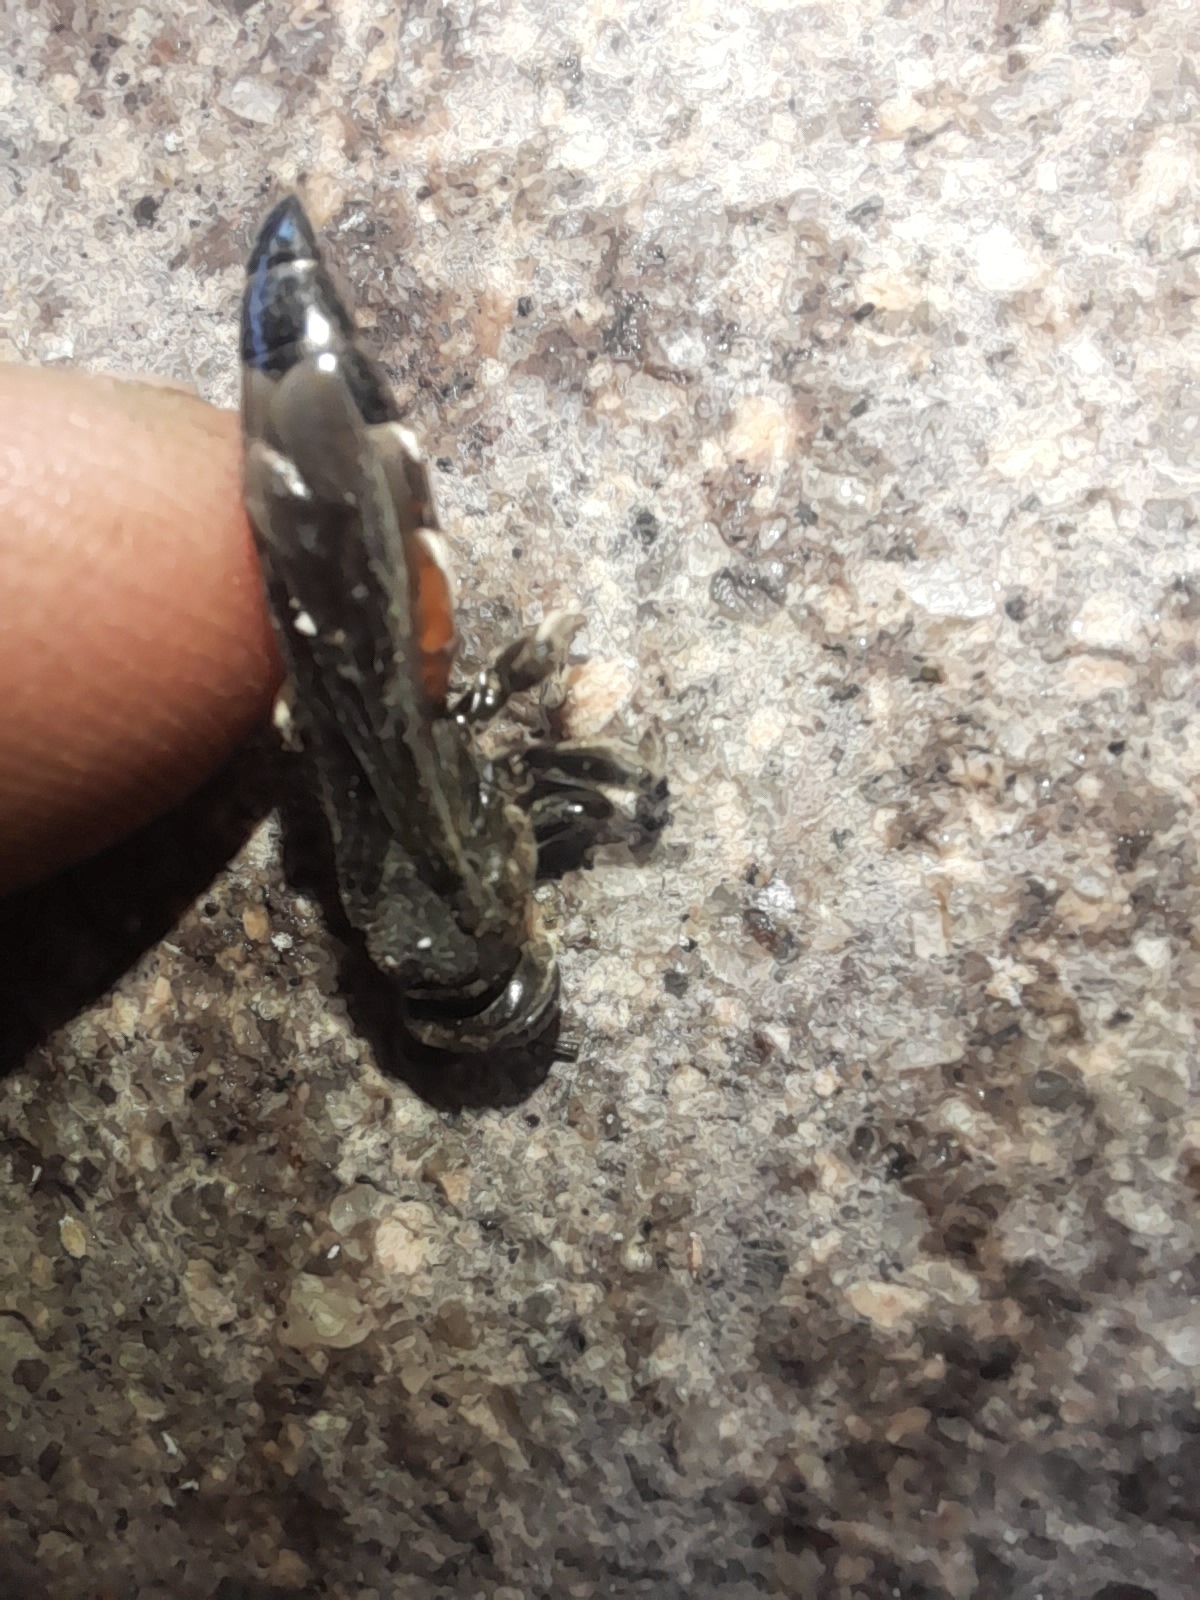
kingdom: Animalia
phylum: Arthropoda
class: Insecta
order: Hymenoptera
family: Crabronidae
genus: Larra
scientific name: Larra anathema
